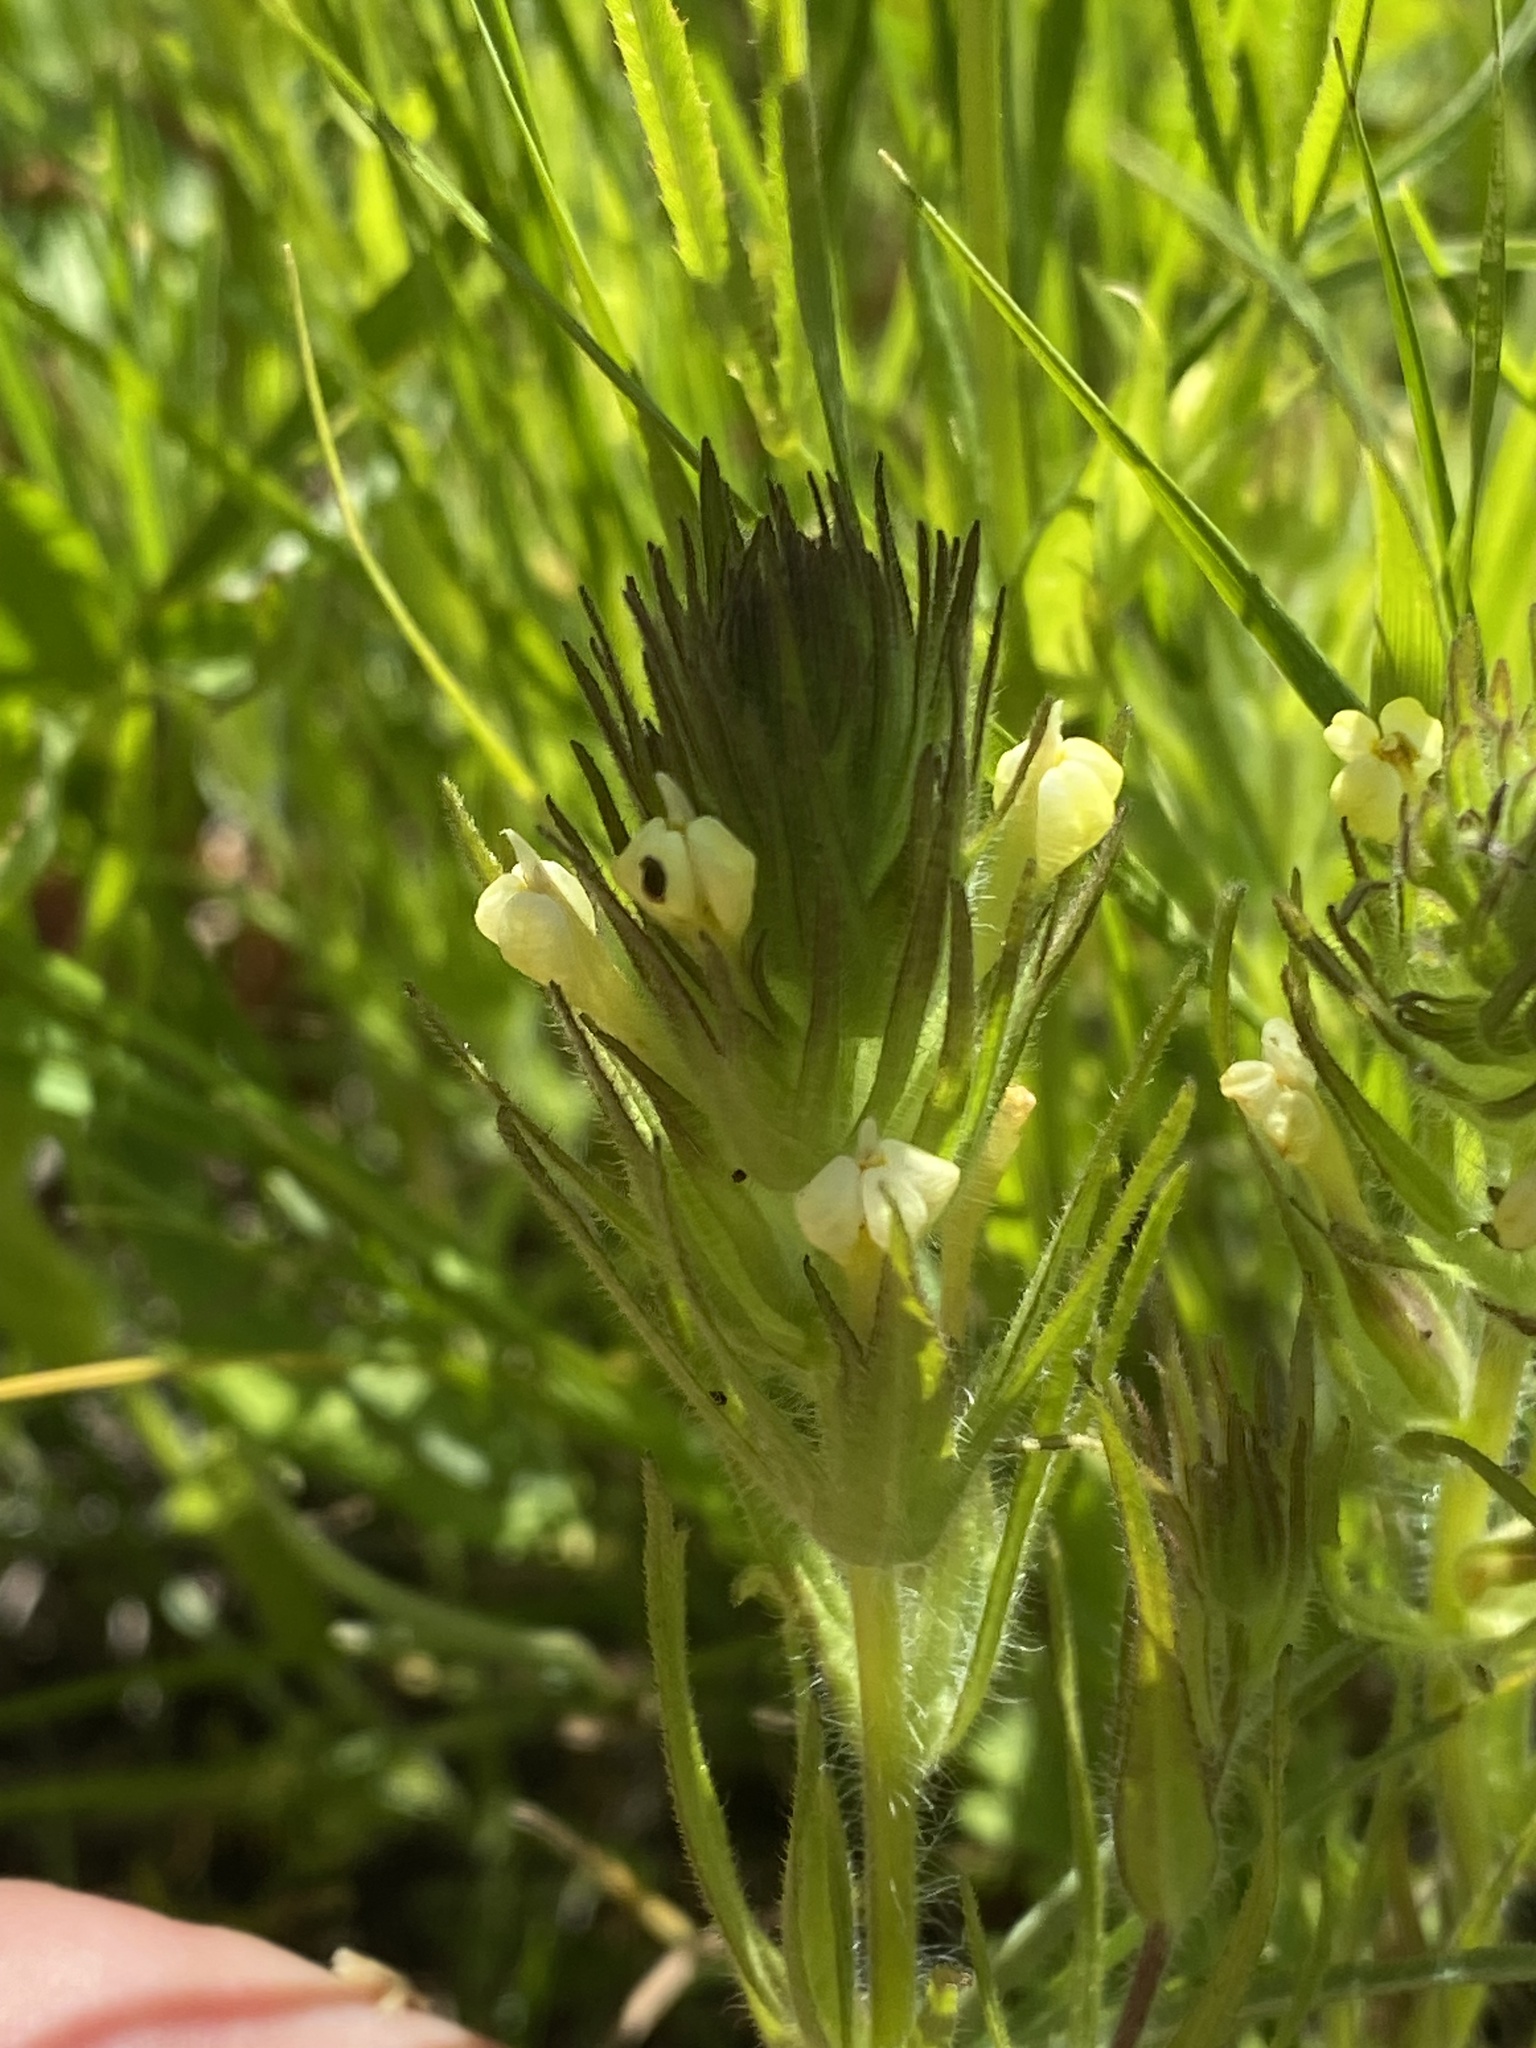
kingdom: Plantae
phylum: Tracheophyta
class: Magnoliopsida
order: Lamiales
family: Orobanchaceae
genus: Castilleja
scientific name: Castilleja tenuis
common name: Hairy indian paintbrush
